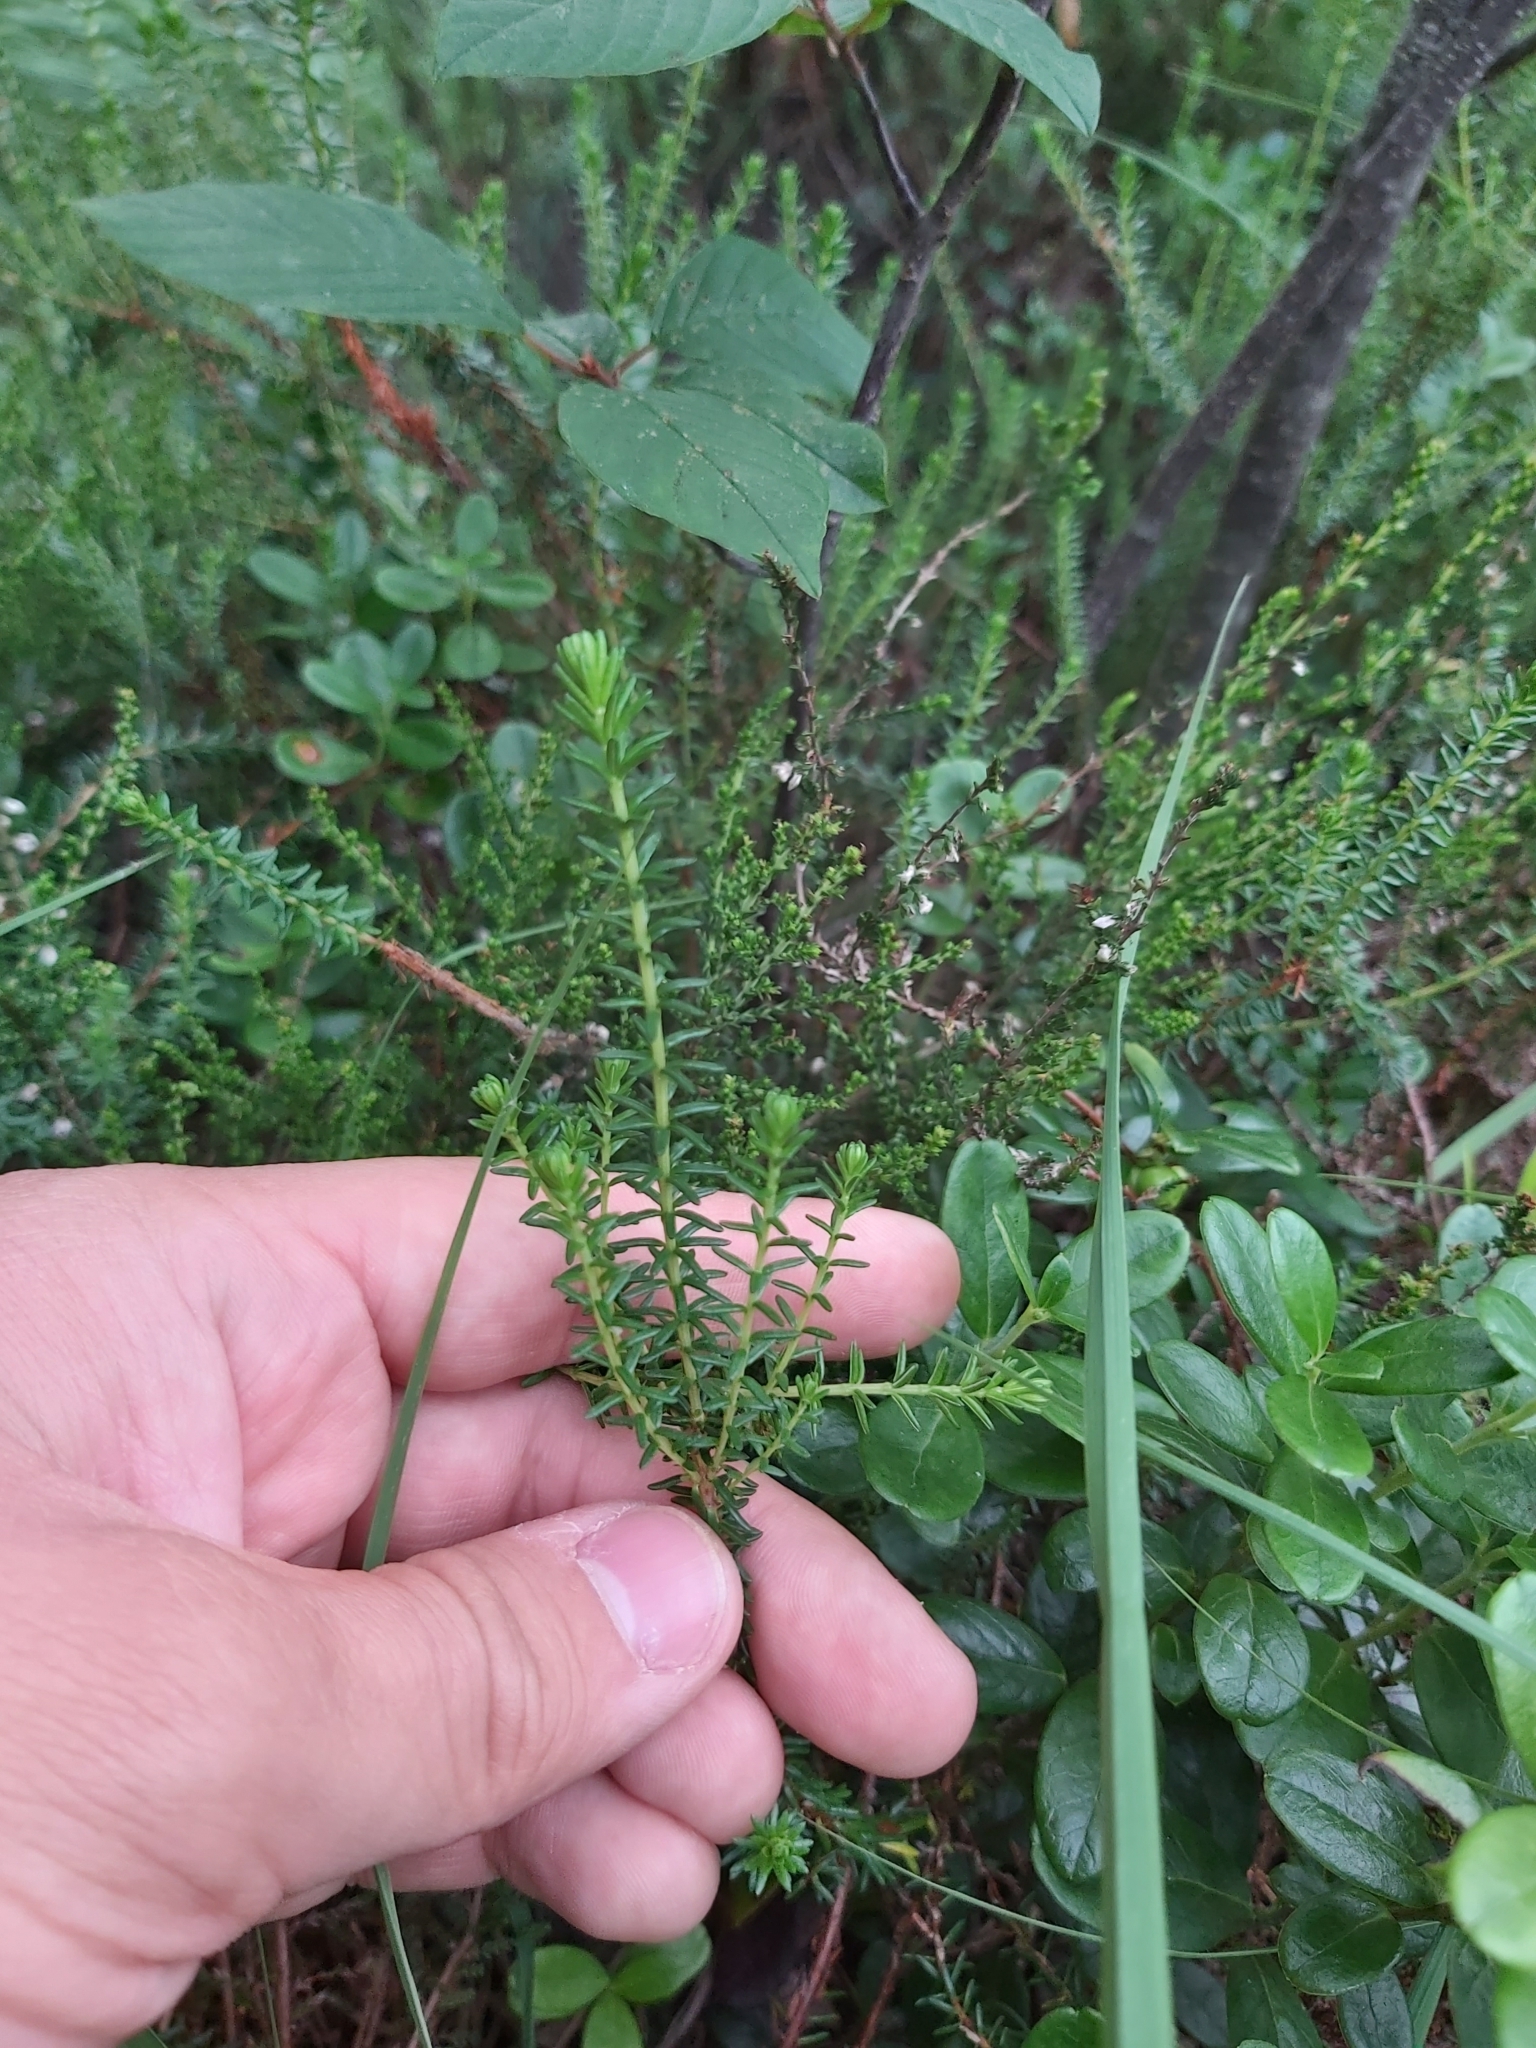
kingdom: Plantae
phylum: Tracheophyta
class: Magnoliopsida
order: Ericales
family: Ericaceae
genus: Empetrum
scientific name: Empetrum nigrum
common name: Black crowberry
